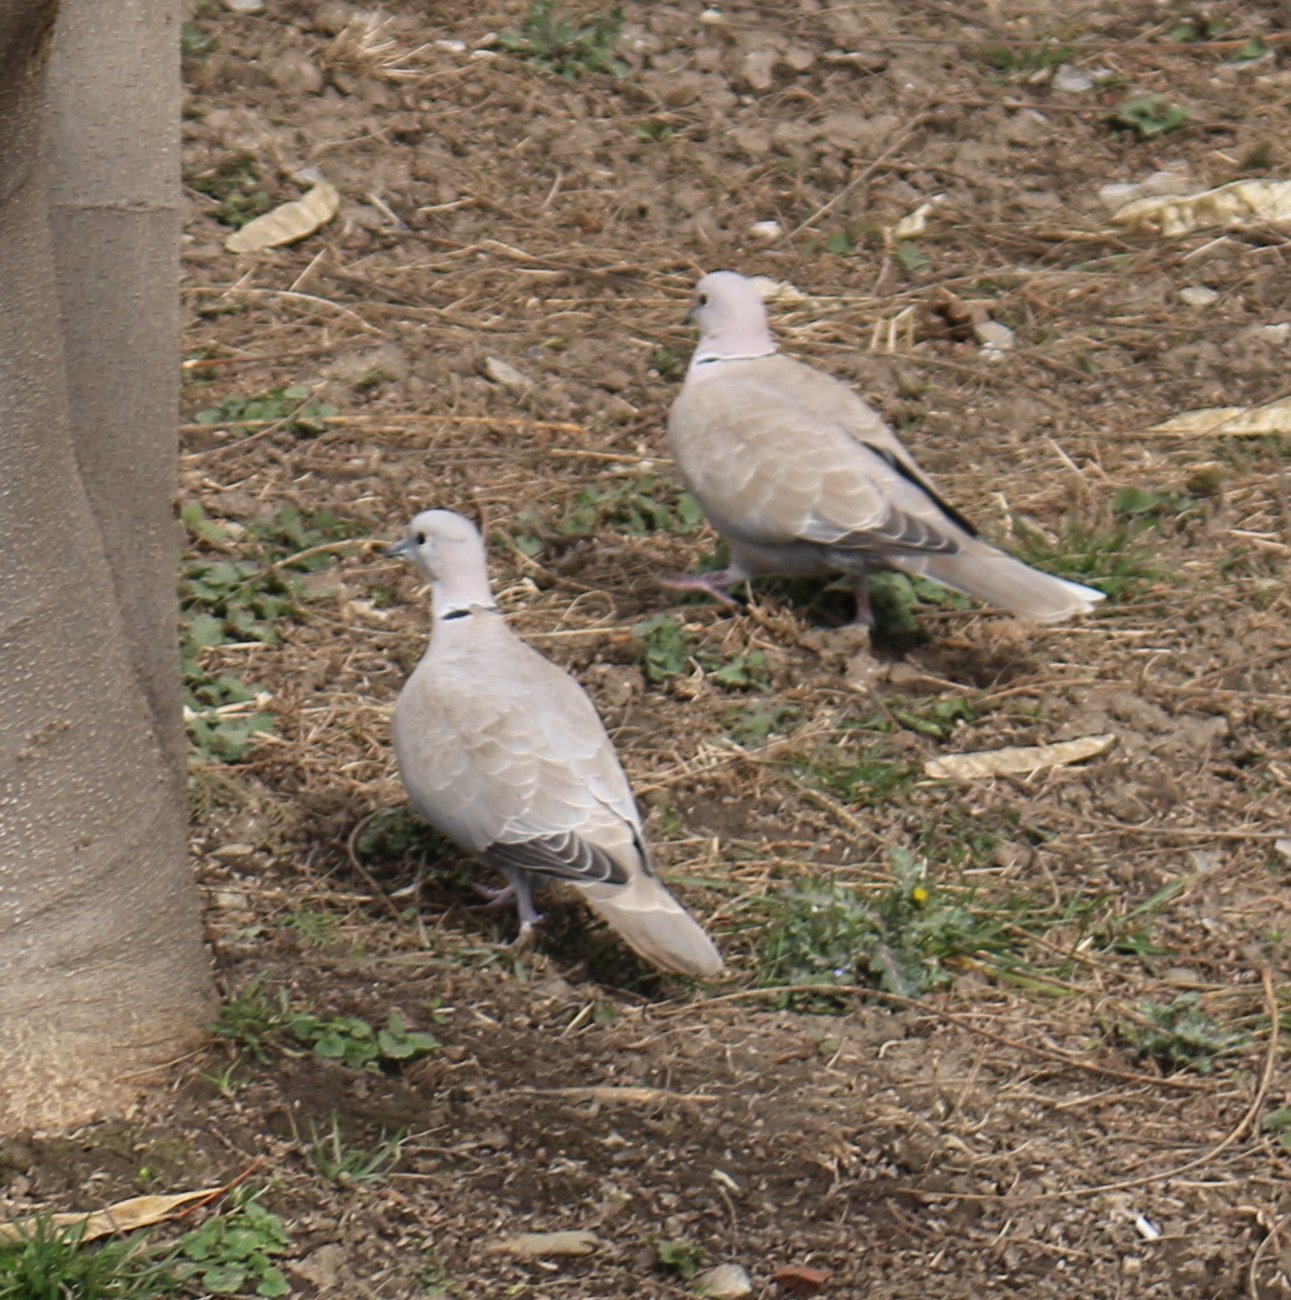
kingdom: Animalia
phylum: Chordata
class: Aves
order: Columbiformes
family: Columbidae
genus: Streptopelia
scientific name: Streptopelia decaocto
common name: Eurasian collared dove
